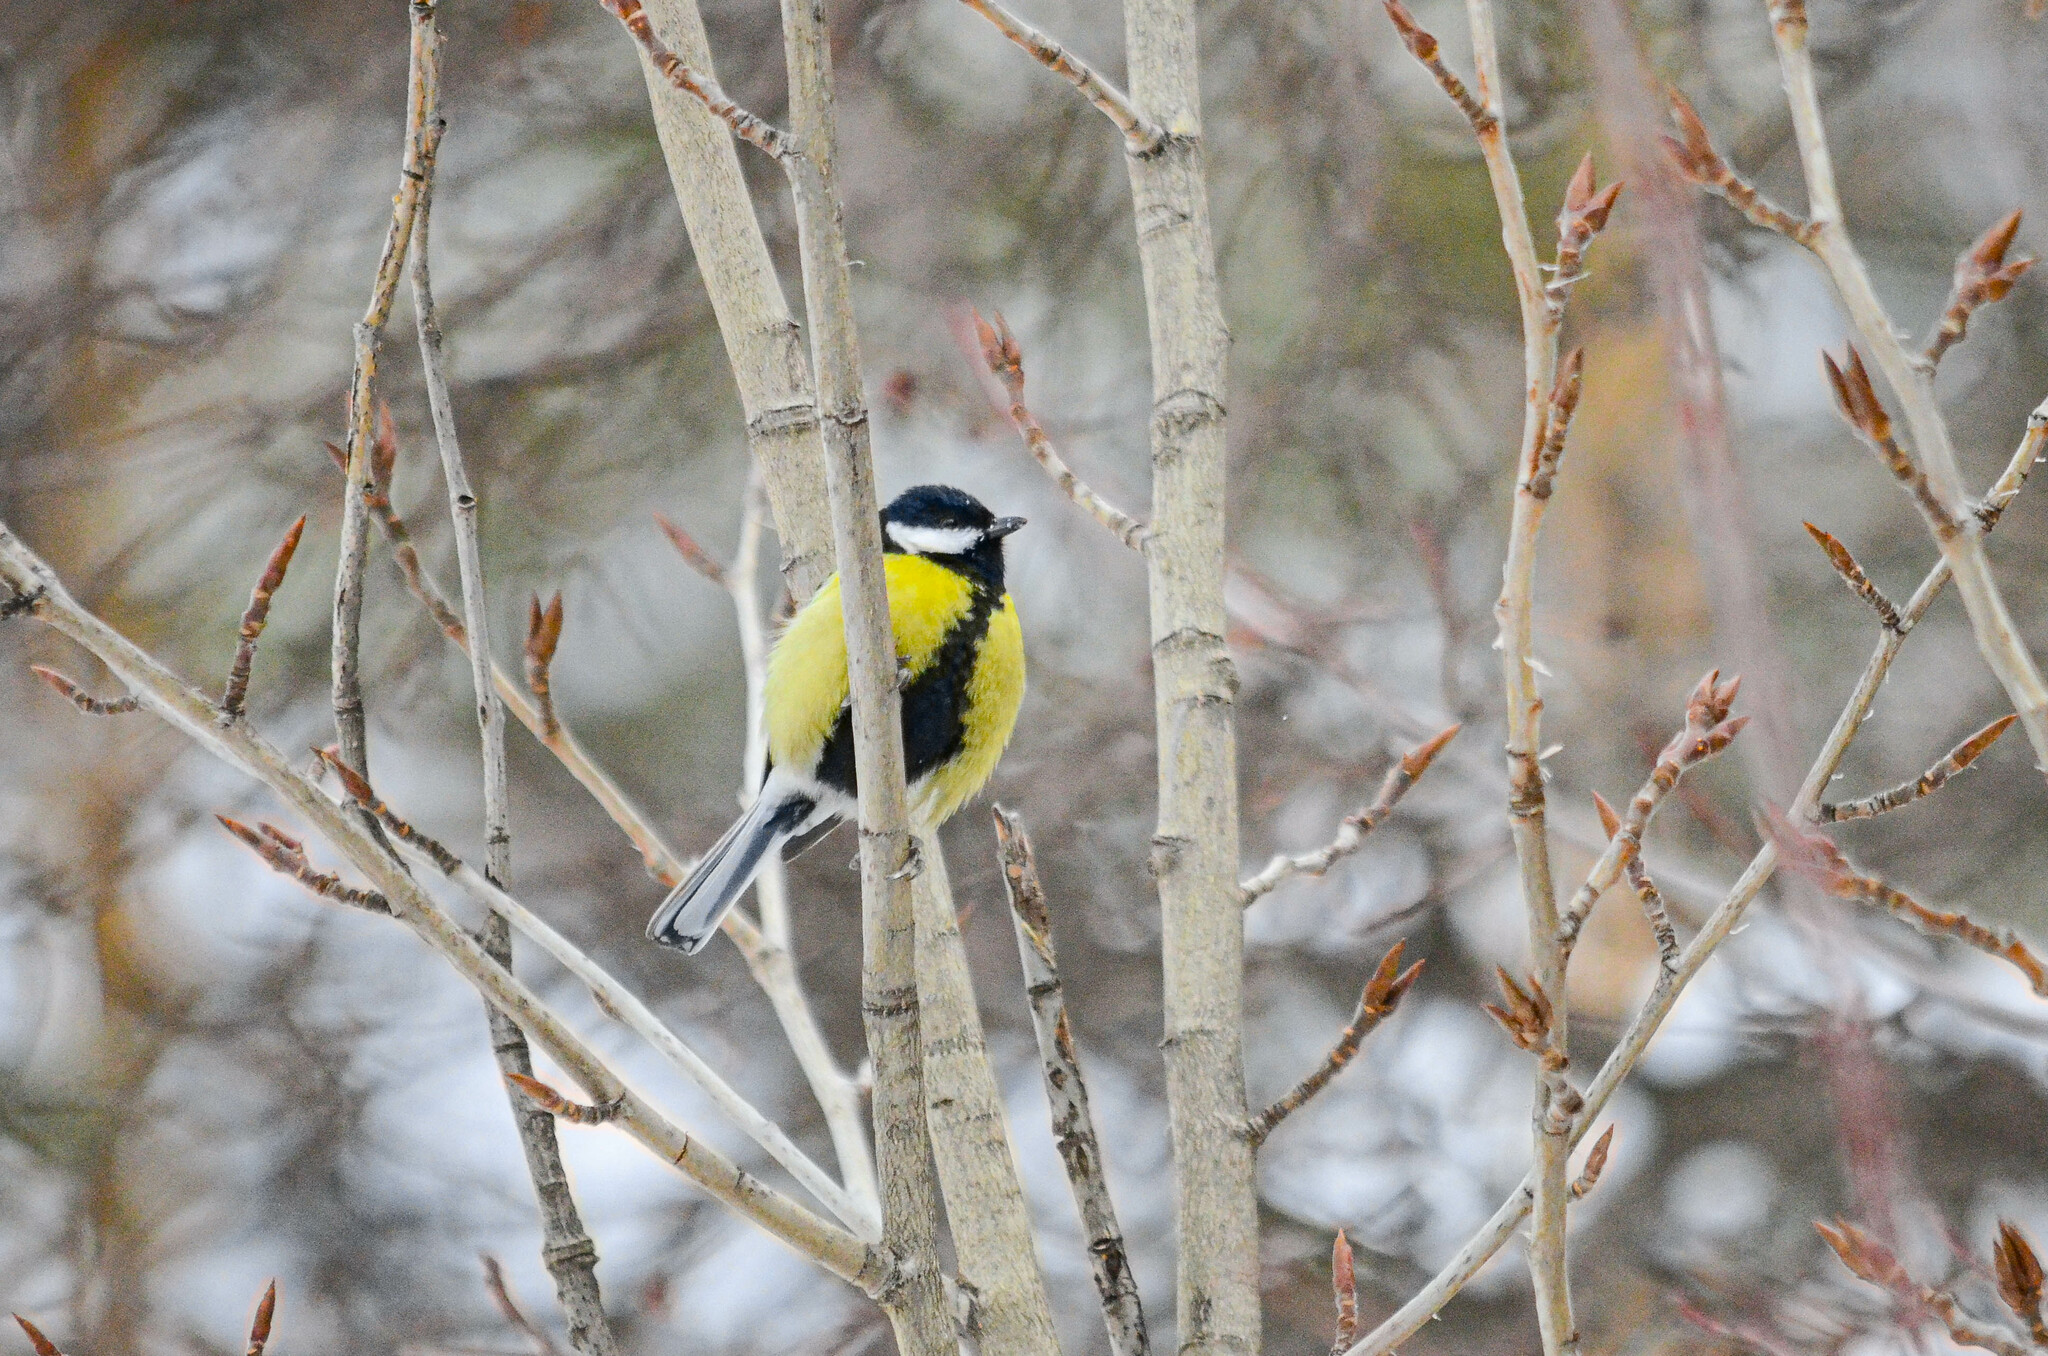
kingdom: Animalia
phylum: Chordata
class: Aves
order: Passeriformes
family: Paridae
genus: Parus
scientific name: Parus major
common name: Great tit
